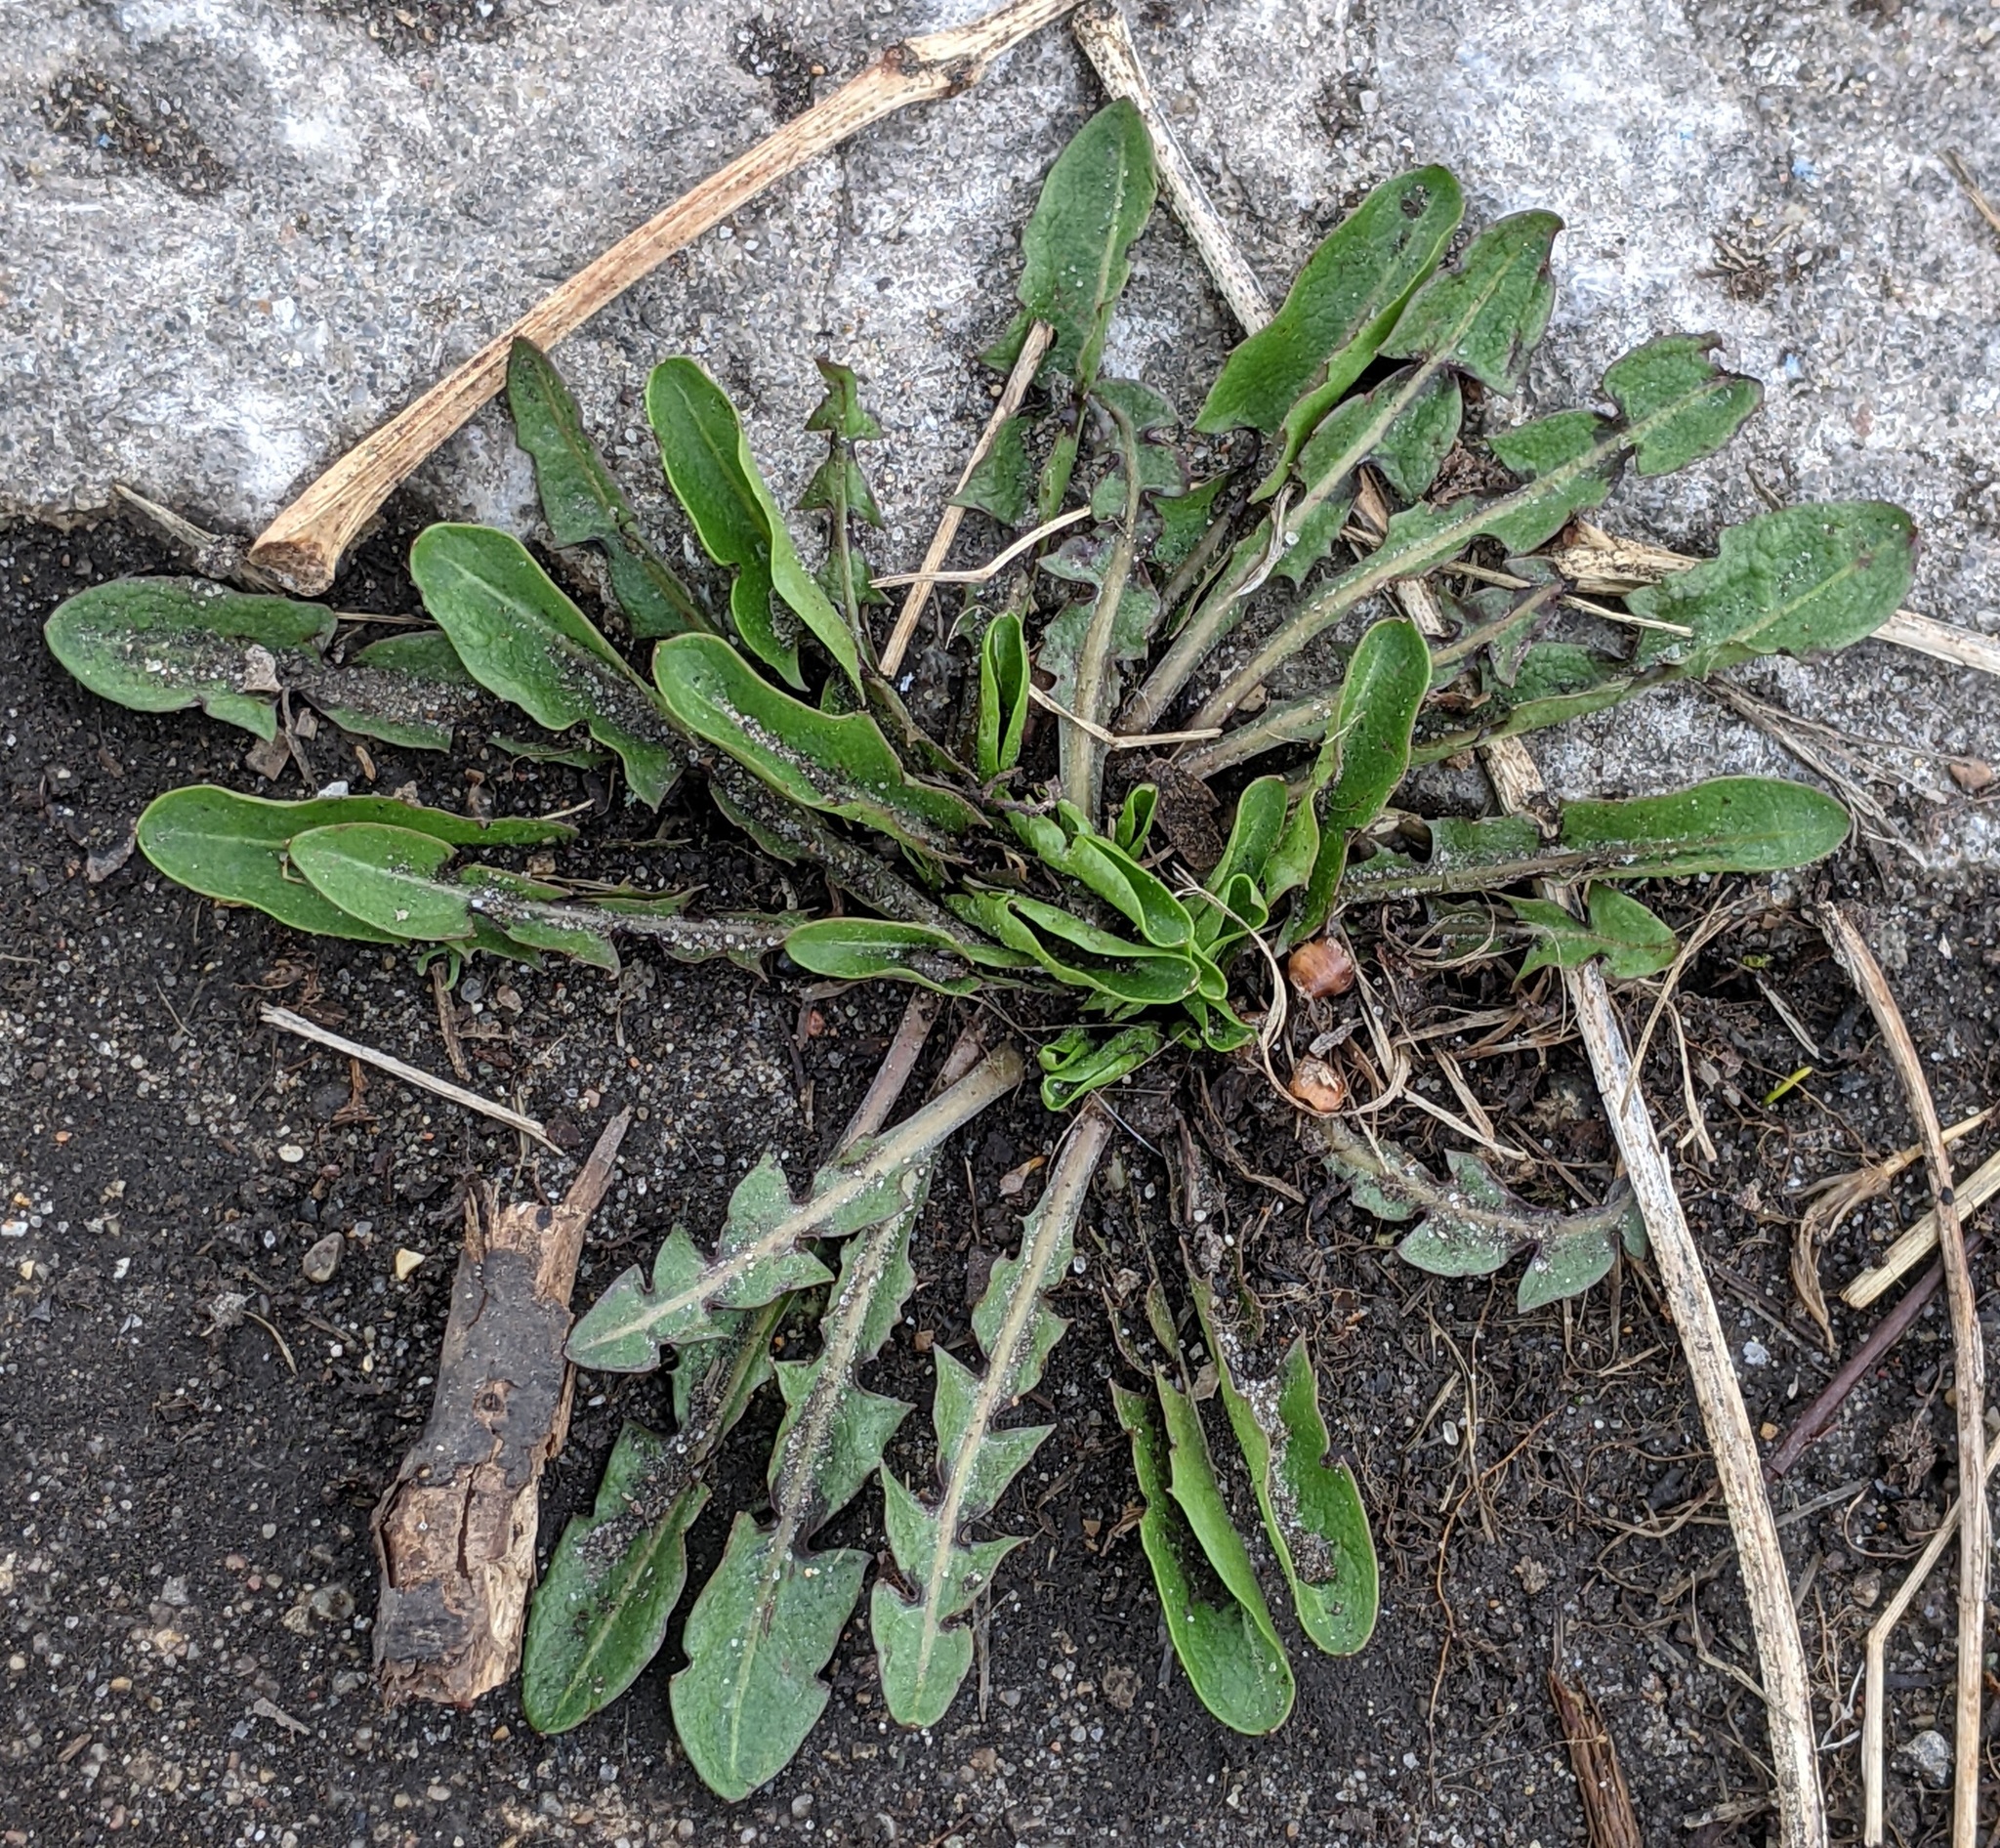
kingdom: Plantae
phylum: Tracheophyta
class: Magnoliopsida
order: Asterales
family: Asteraceae
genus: Taraxacum
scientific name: Taraxacum officinale
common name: Common dandelion
